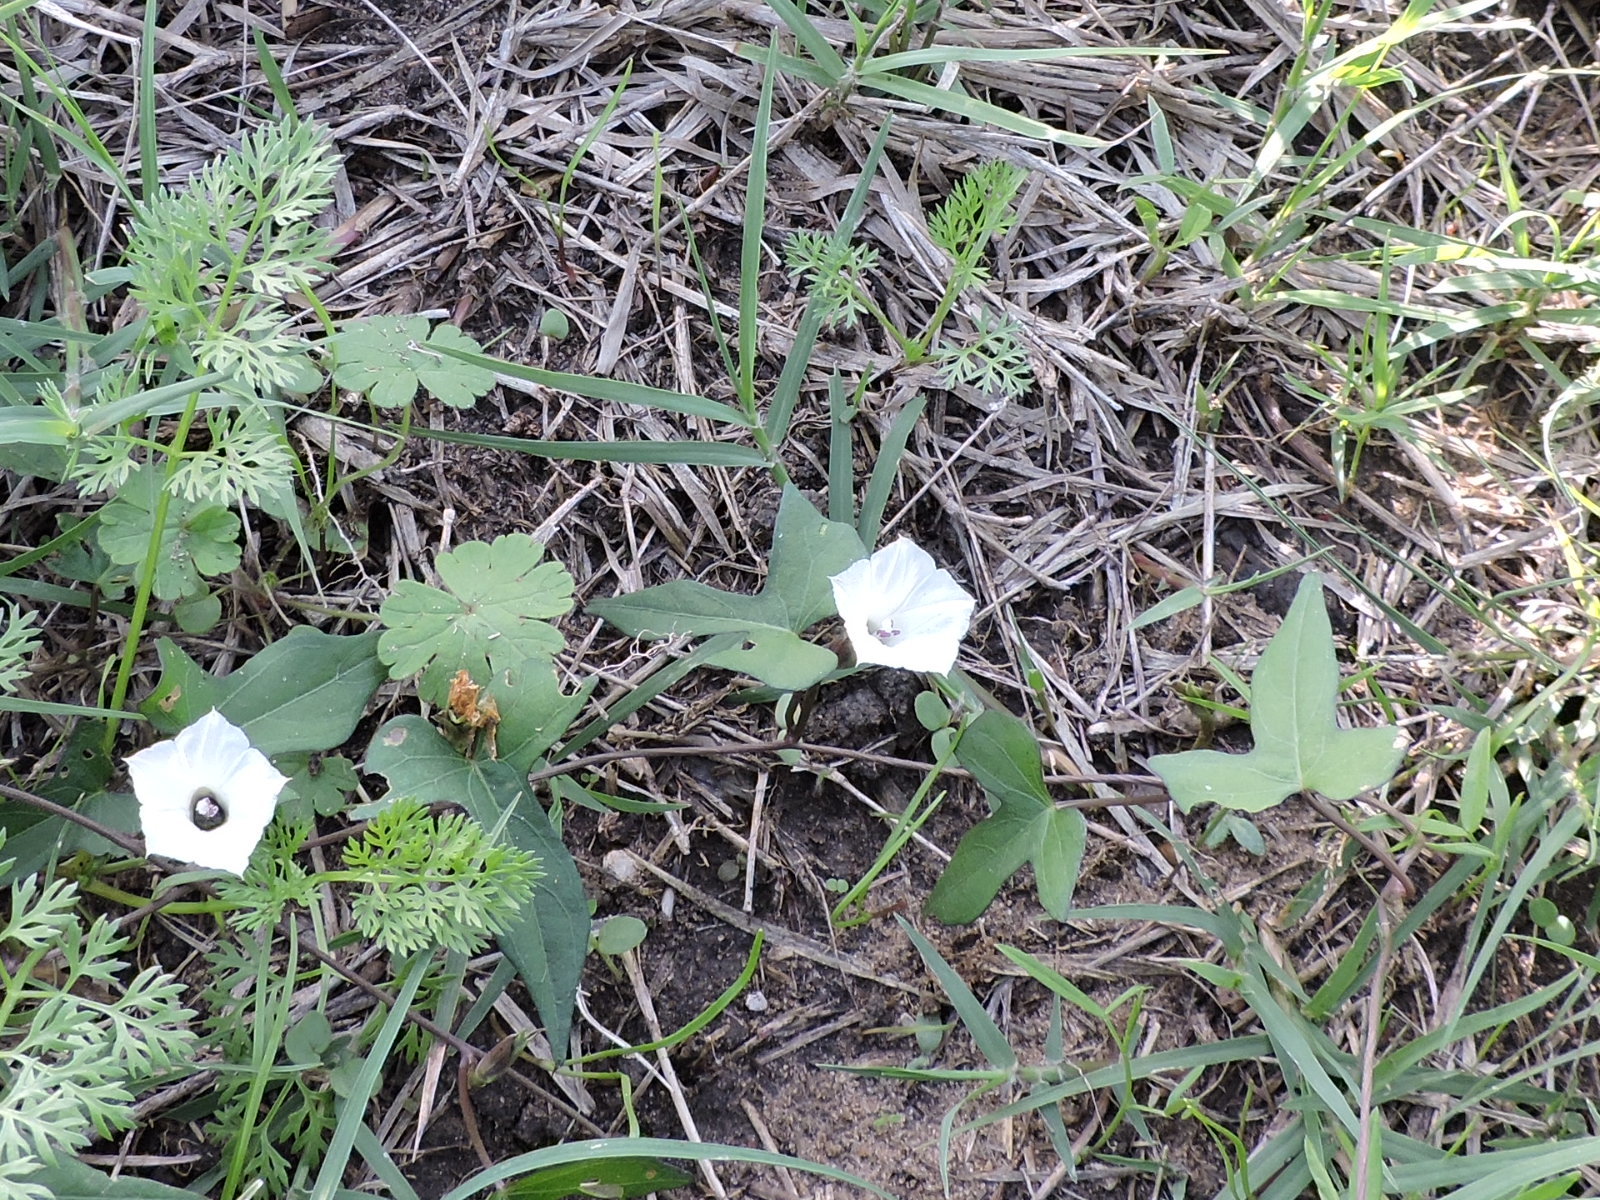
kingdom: Plantae
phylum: Tracheophyta
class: Magnoliopsida
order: Solanales
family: Convolvulaceae
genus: Ipomoea
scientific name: Ipomoea lacunosa
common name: White morning-glory
